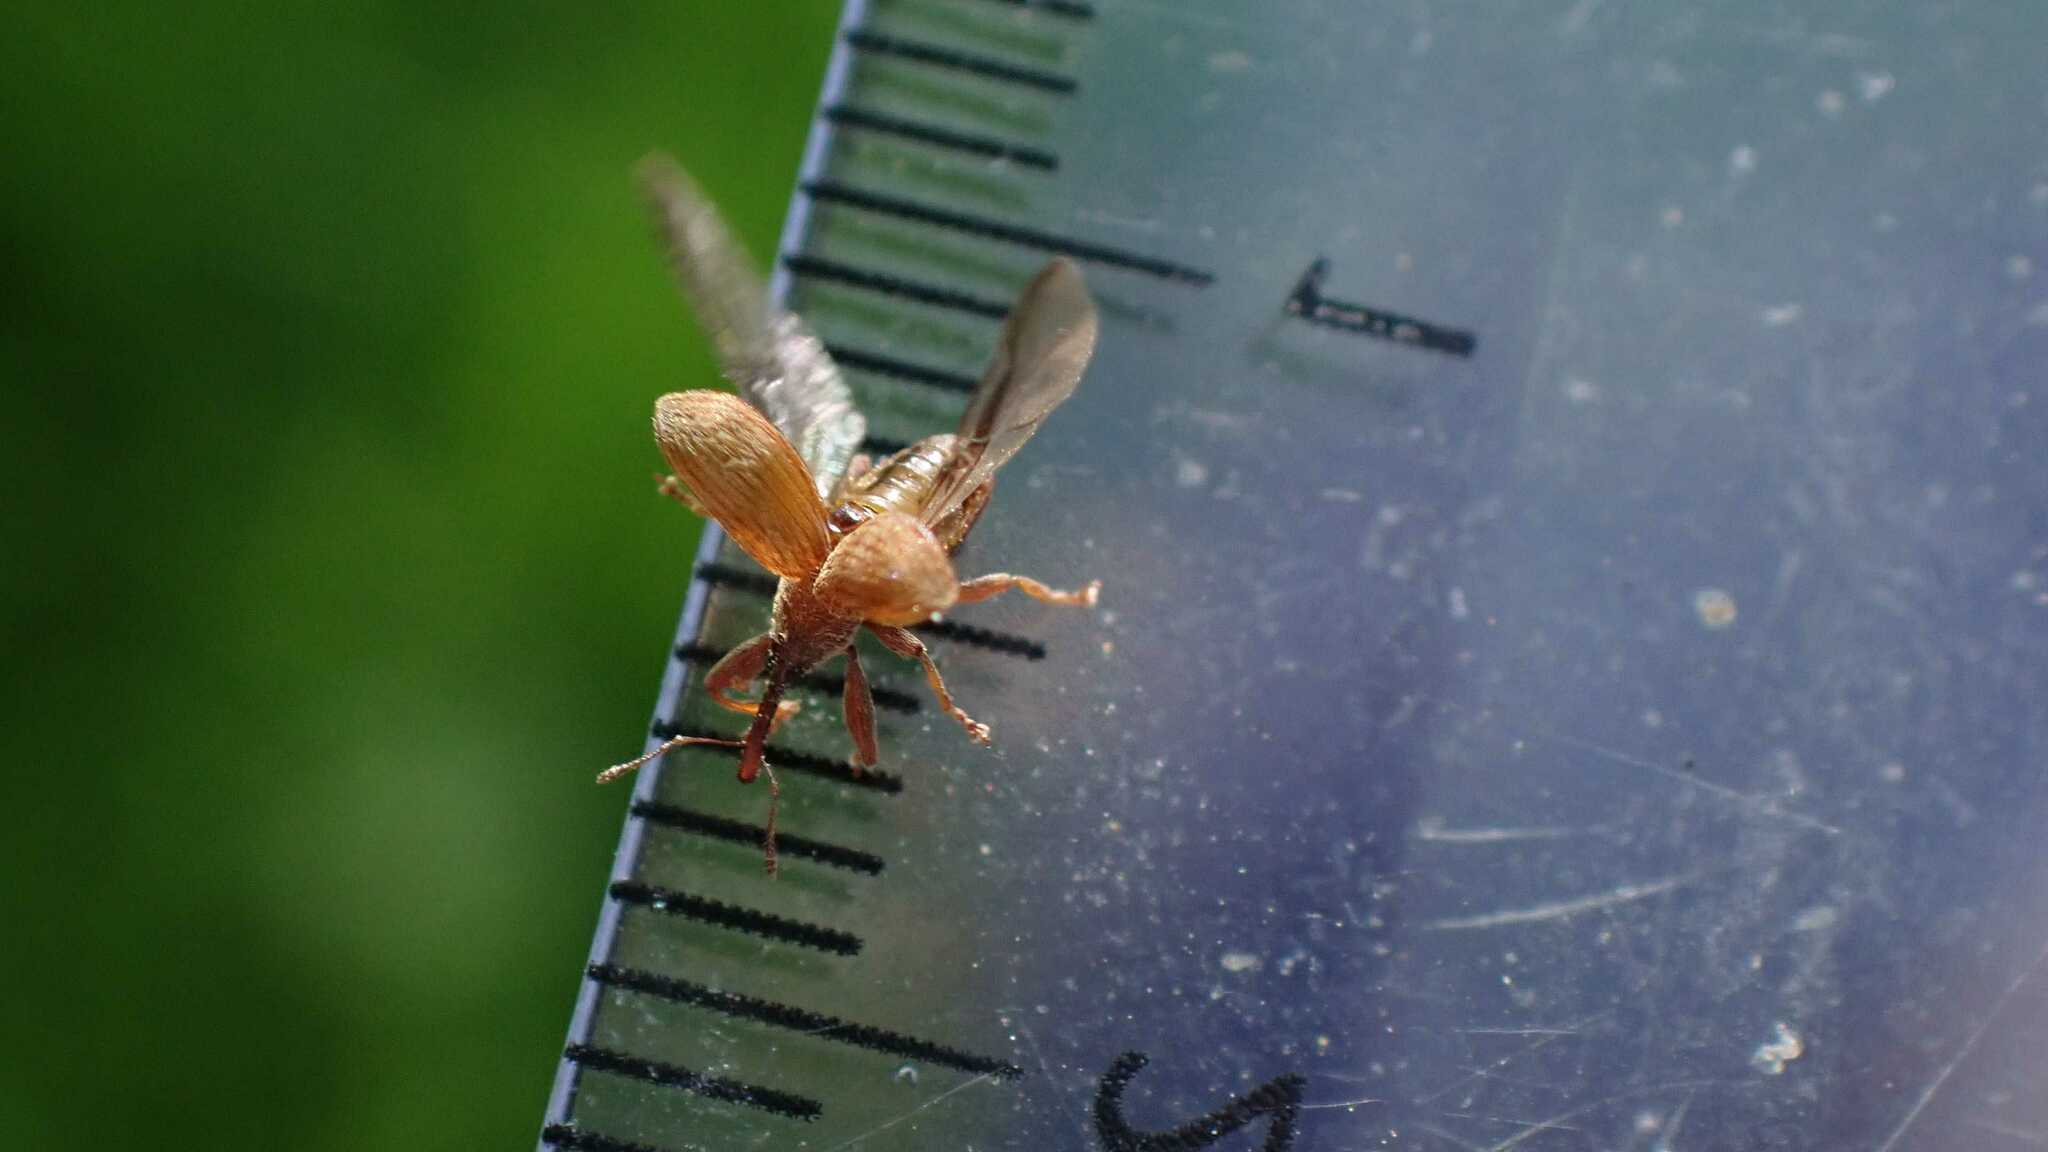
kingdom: Animalia
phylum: Arthropoda
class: Insecta
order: Coleoptera
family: Curculionidae
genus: Anthonomus
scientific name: Anthonomus rectirostris
